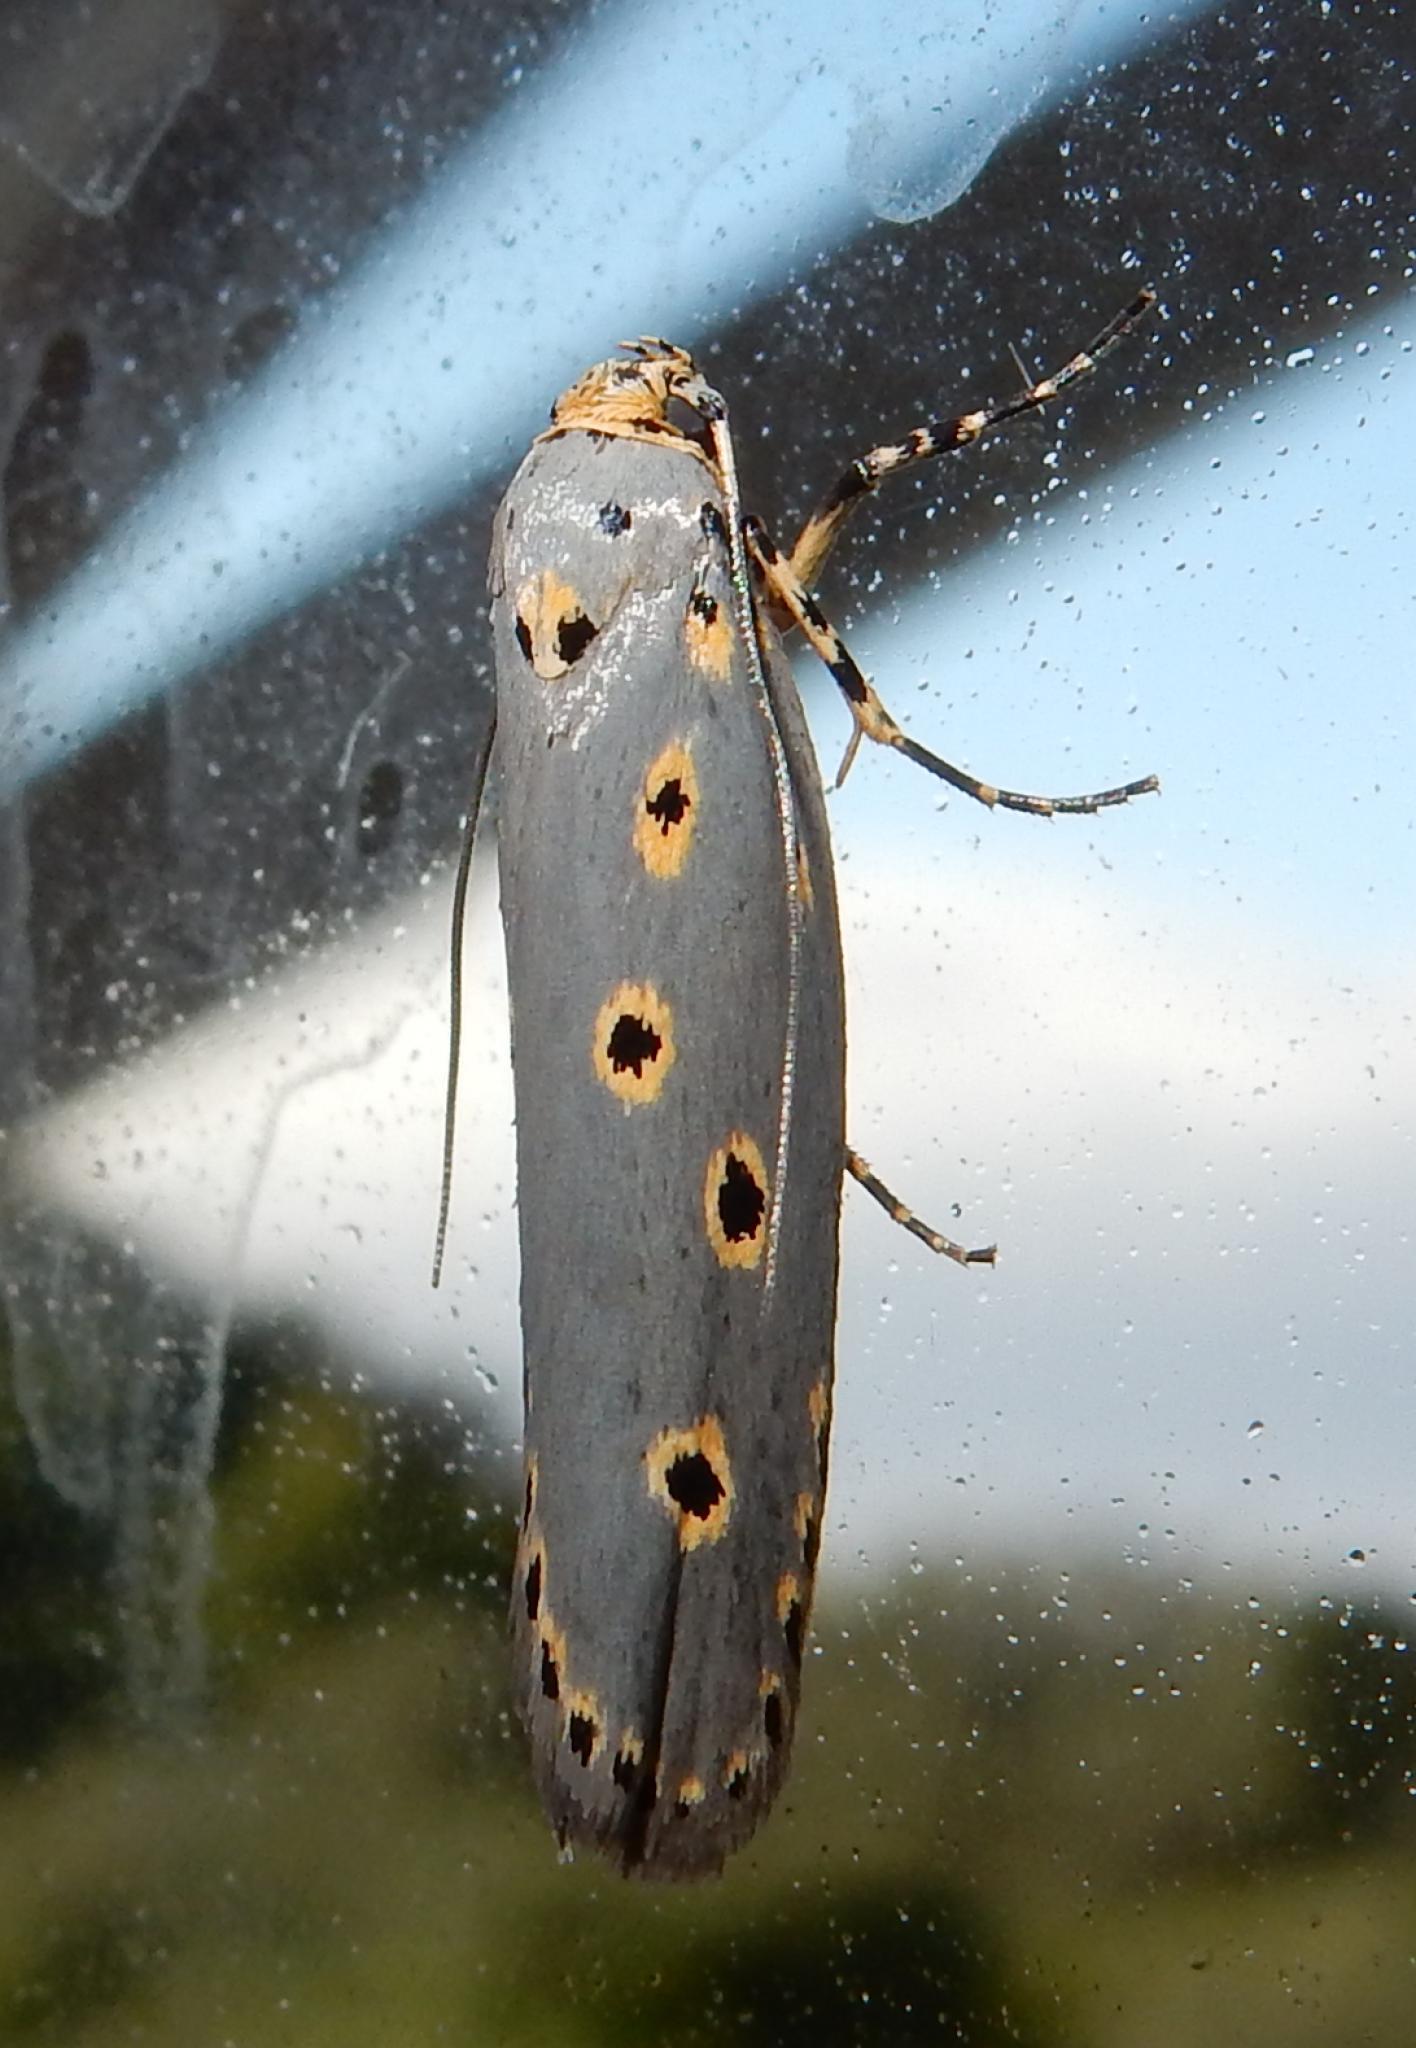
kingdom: Animalia
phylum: Arthropoda
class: Insecta
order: Lepidoptera
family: Ethmiidae
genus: Ethmia
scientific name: Ethmia circumdatella
